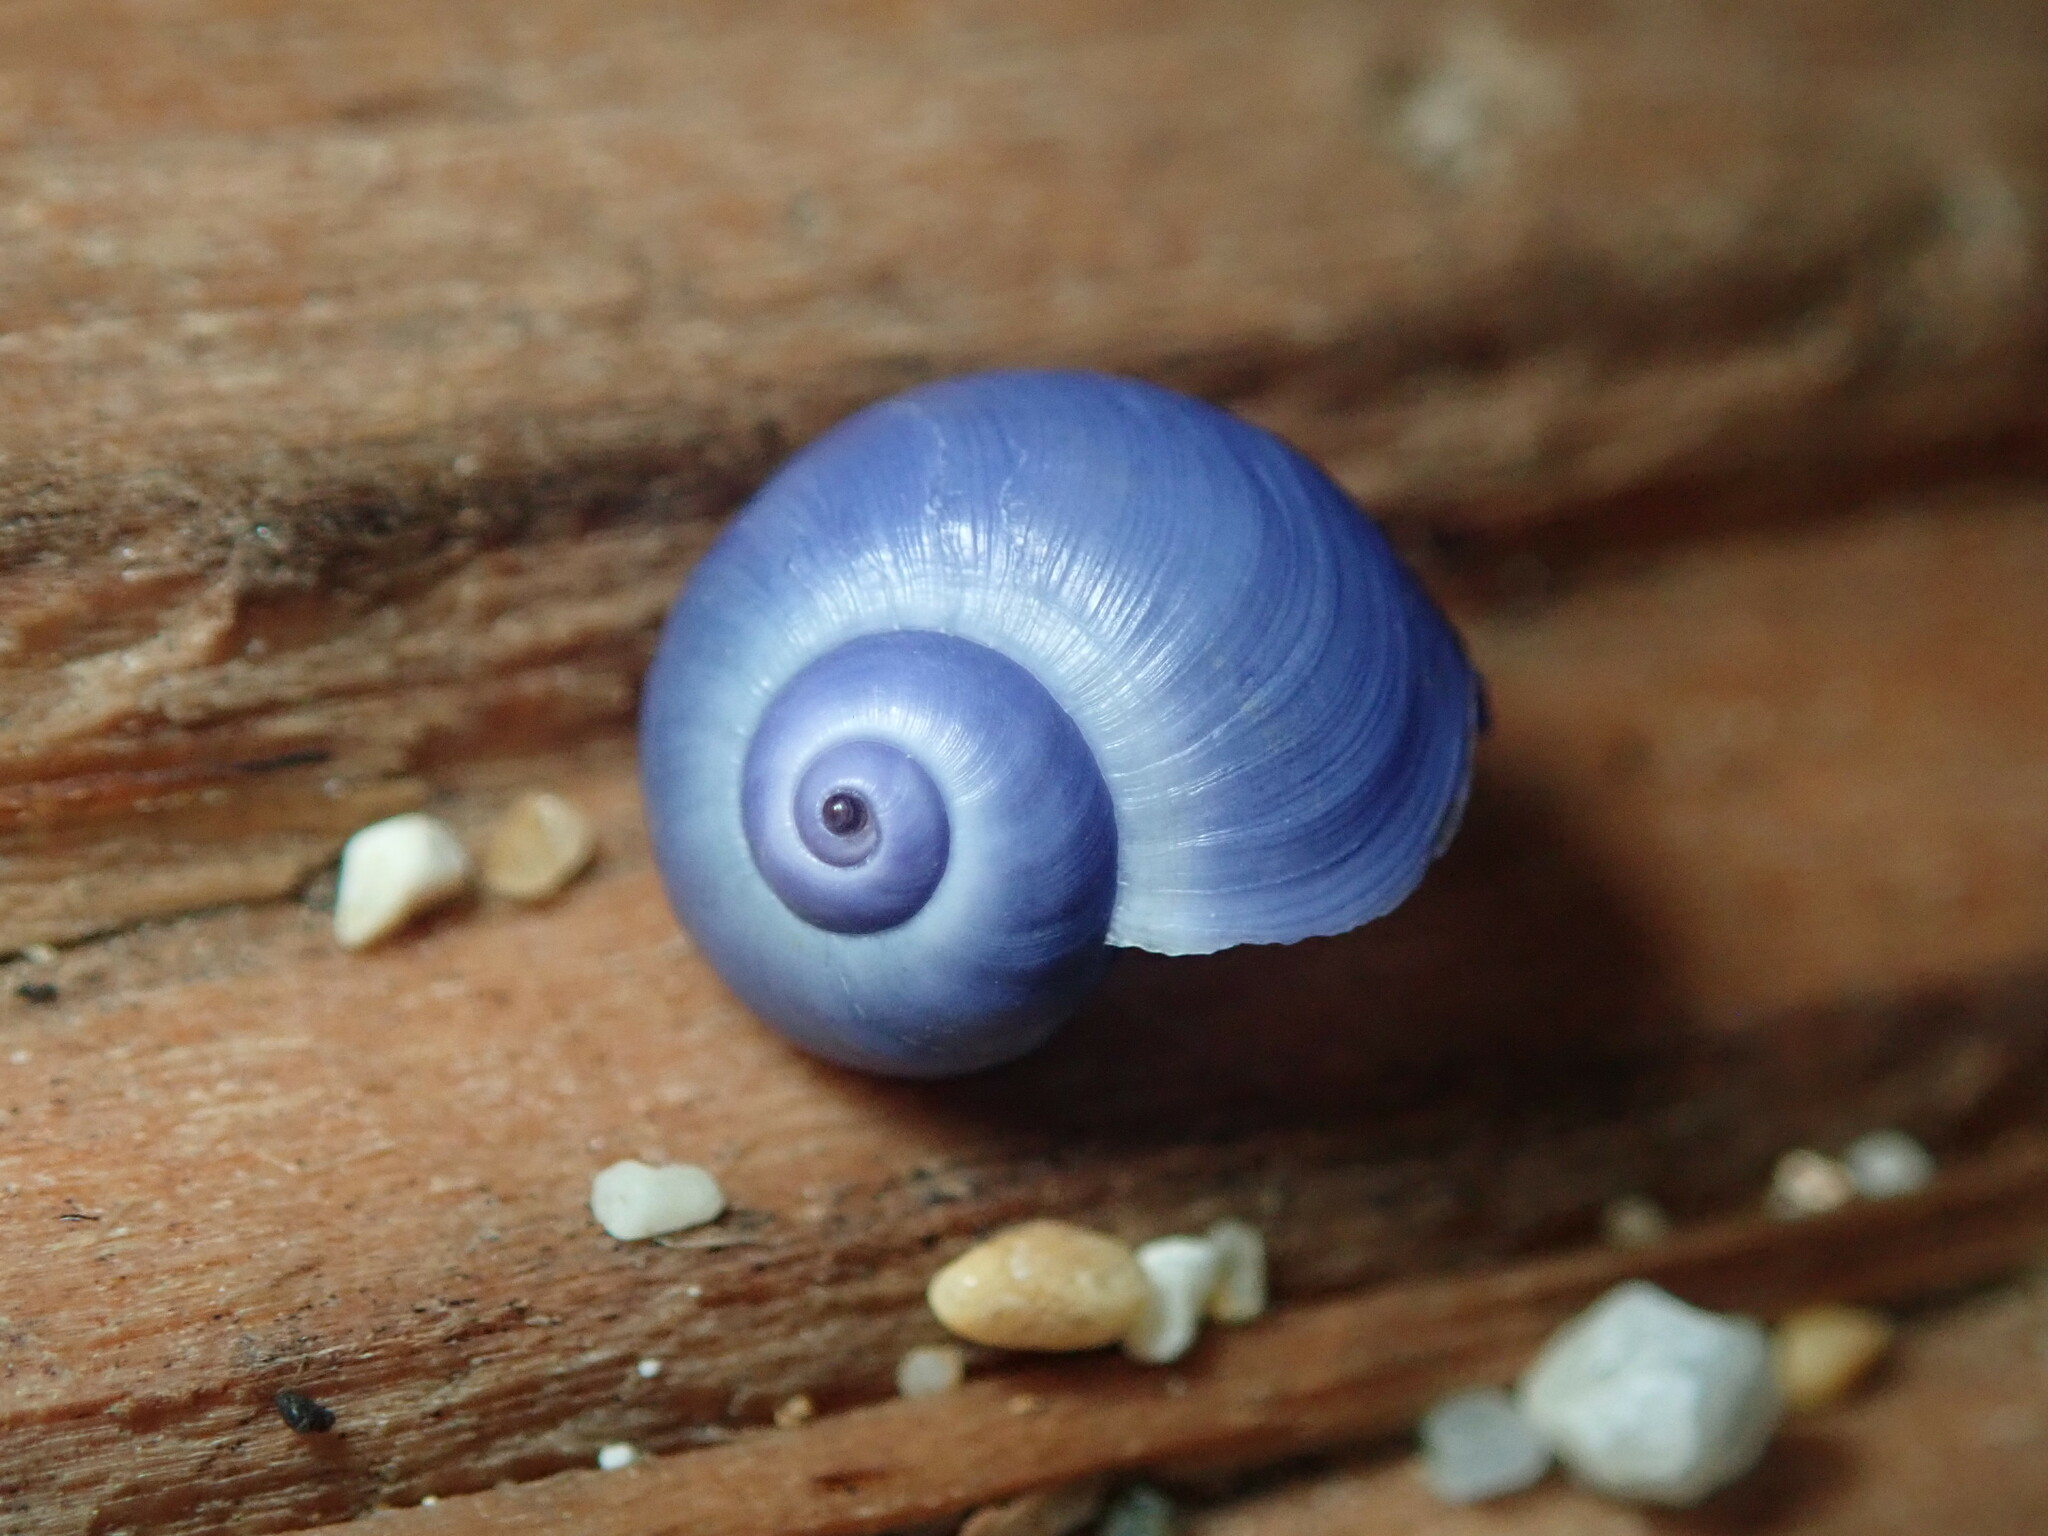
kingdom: Animalia
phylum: Mollusca
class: Gastropoda
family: Epitoniidae
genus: Janthina
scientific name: Janthina umbilicata
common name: Elongate janthina
